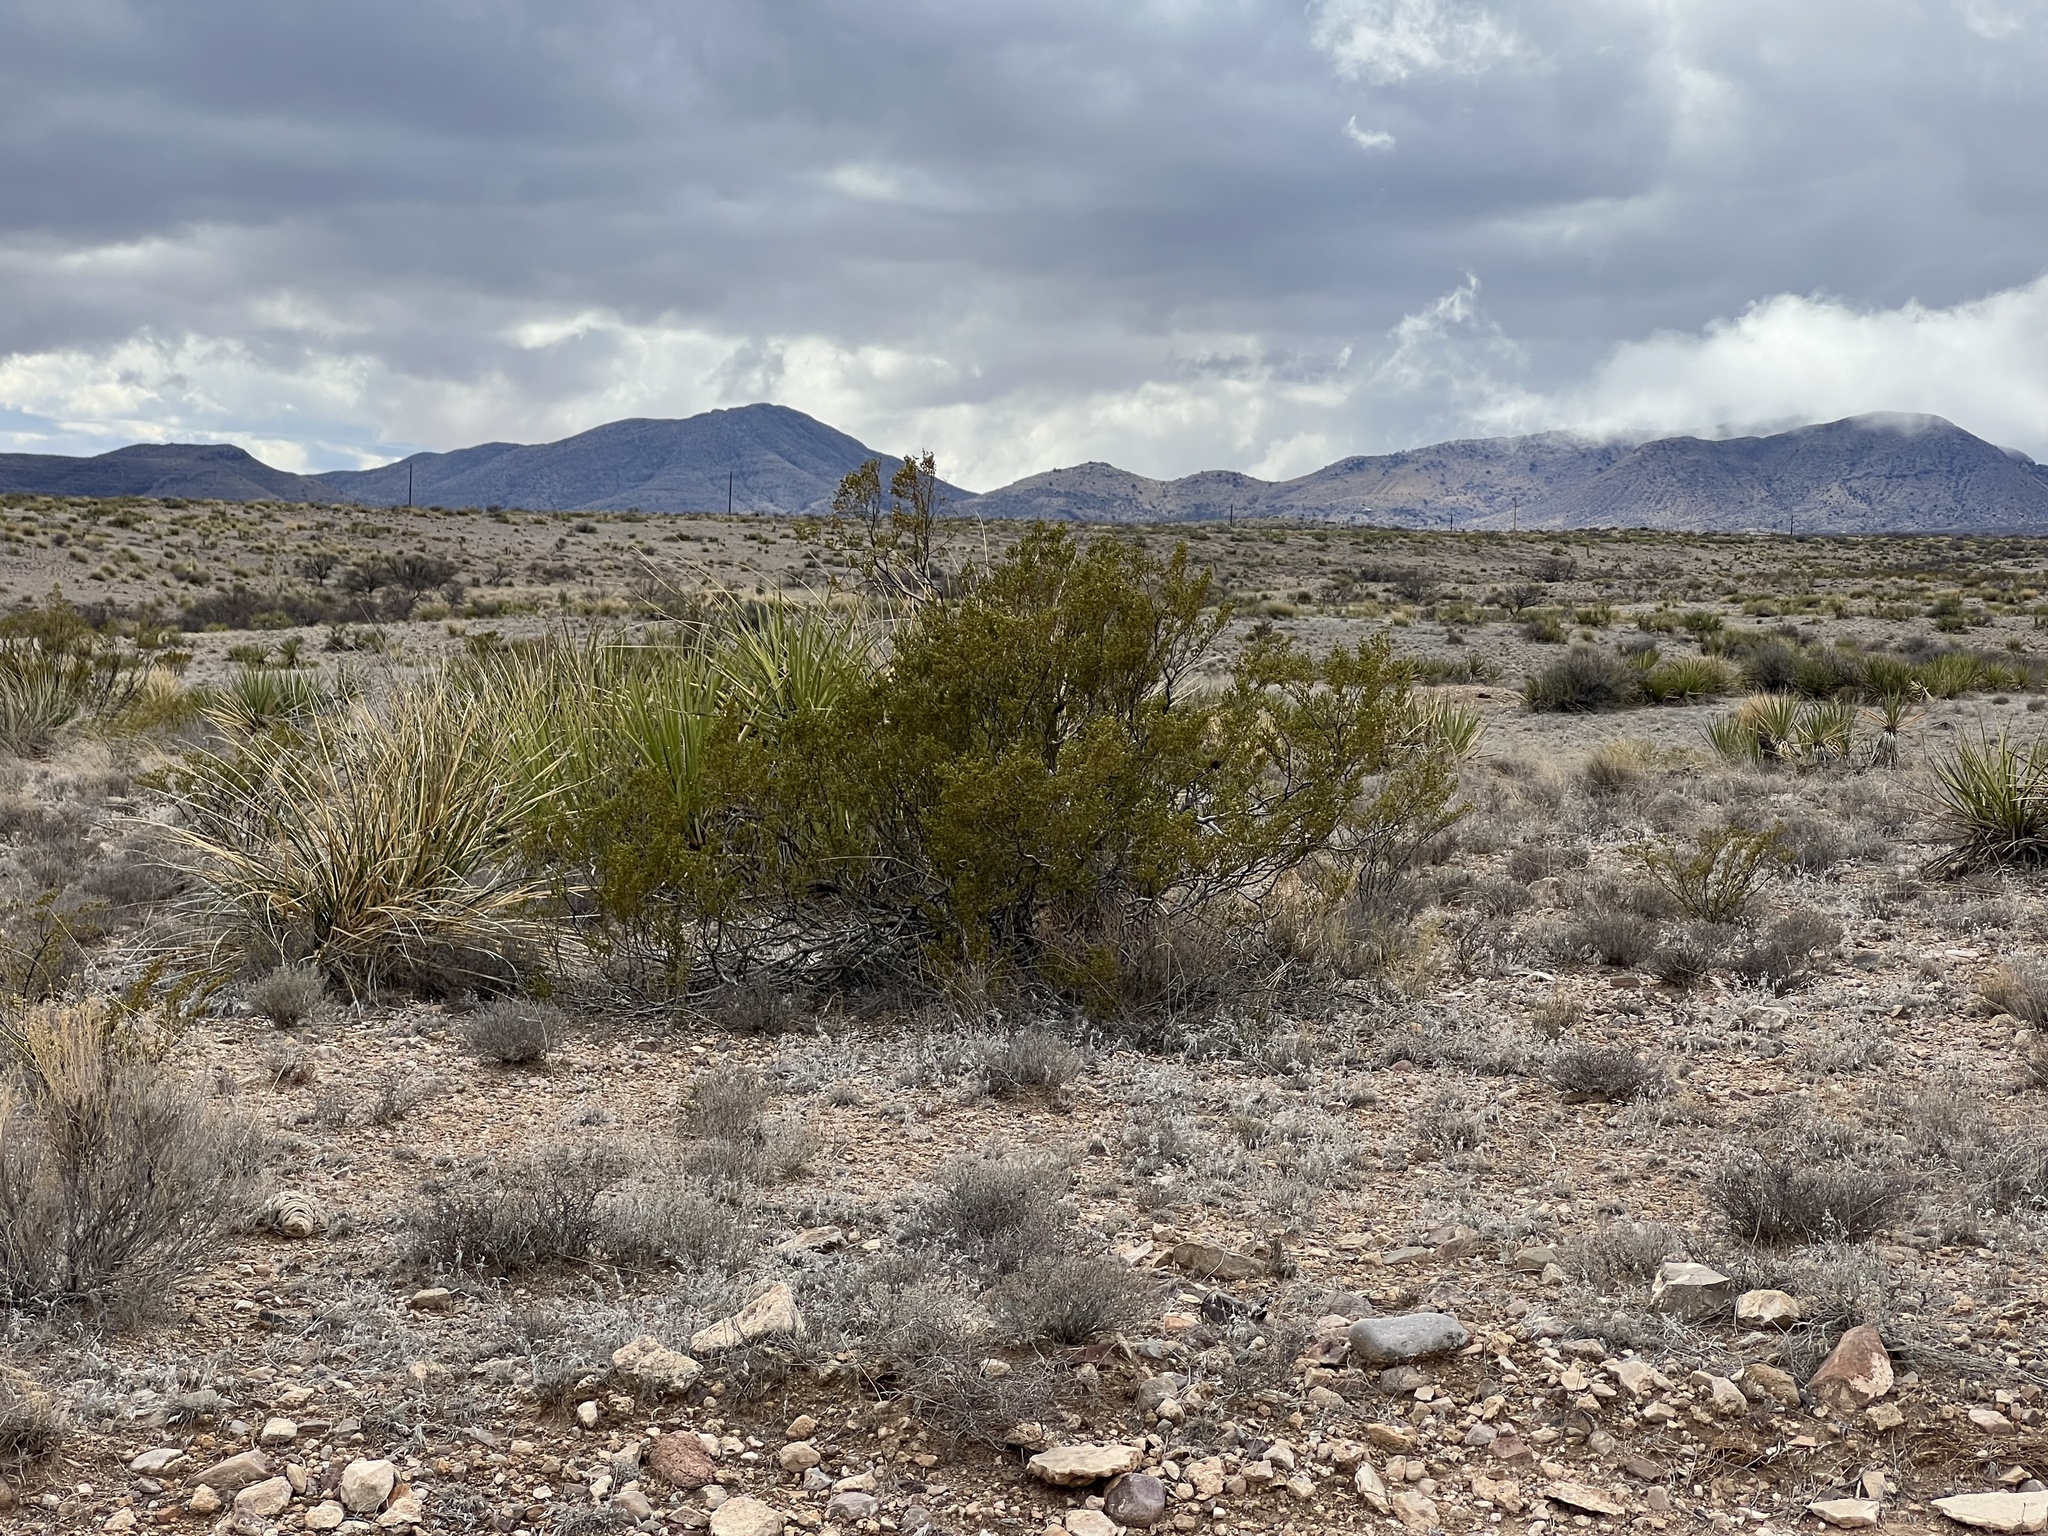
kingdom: Plantae
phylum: Tracheophyta
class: Magnoliopsida
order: Zygophyllales
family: Zygophyllaceae
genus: Larrea
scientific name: Larrea tridentata
